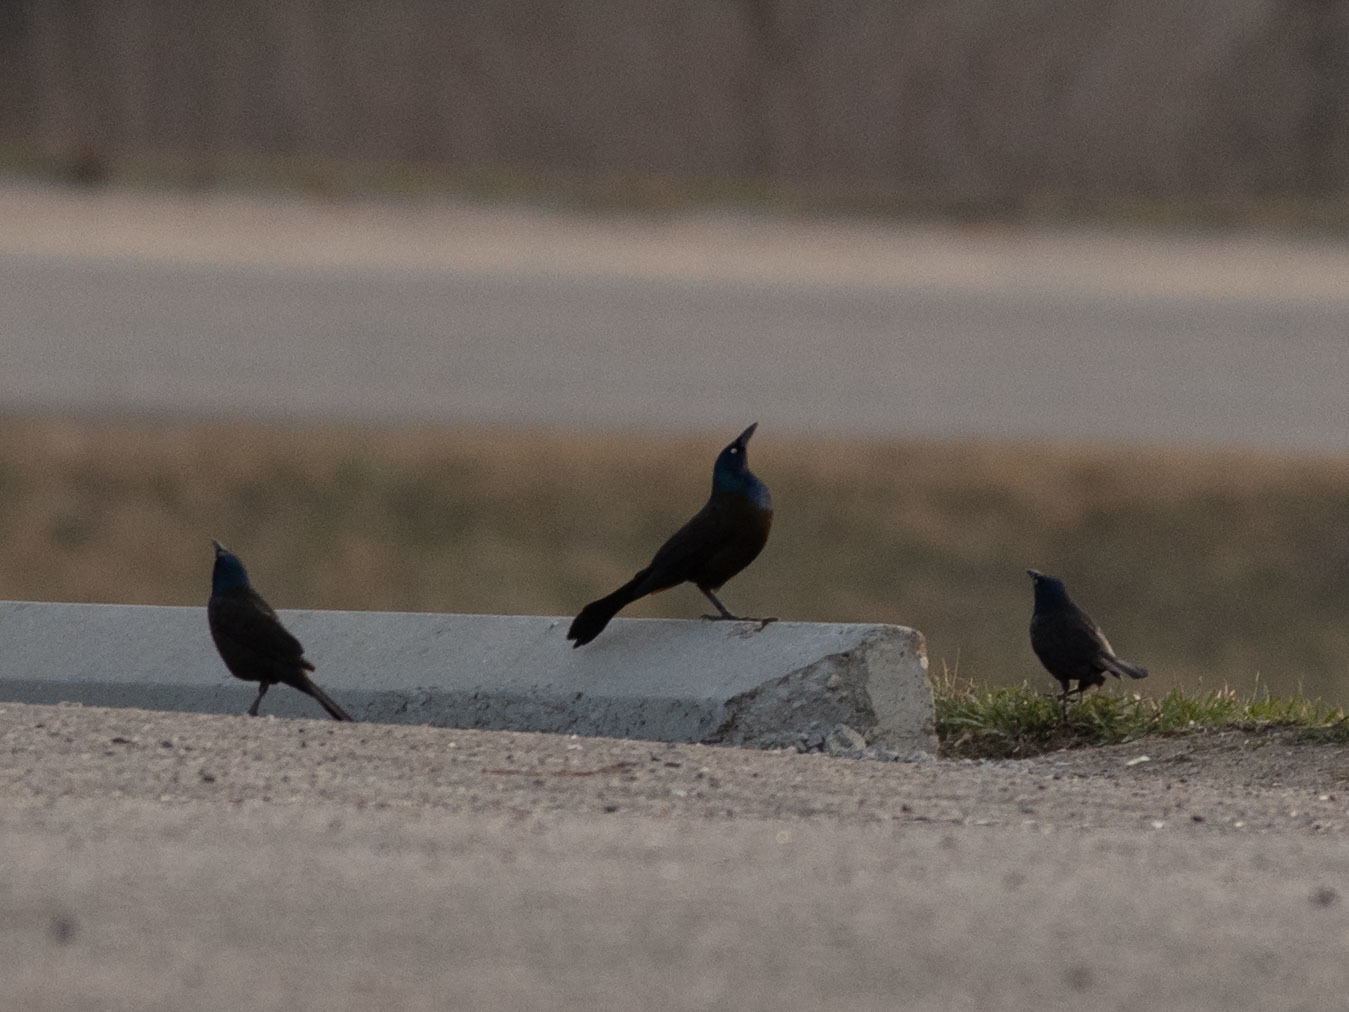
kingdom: Animalia
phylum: Chordata
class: Aves
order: Passeriformes
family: Icteridae
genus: Quiscalus
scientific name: Quiscalus quiscula
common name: Common grackle
